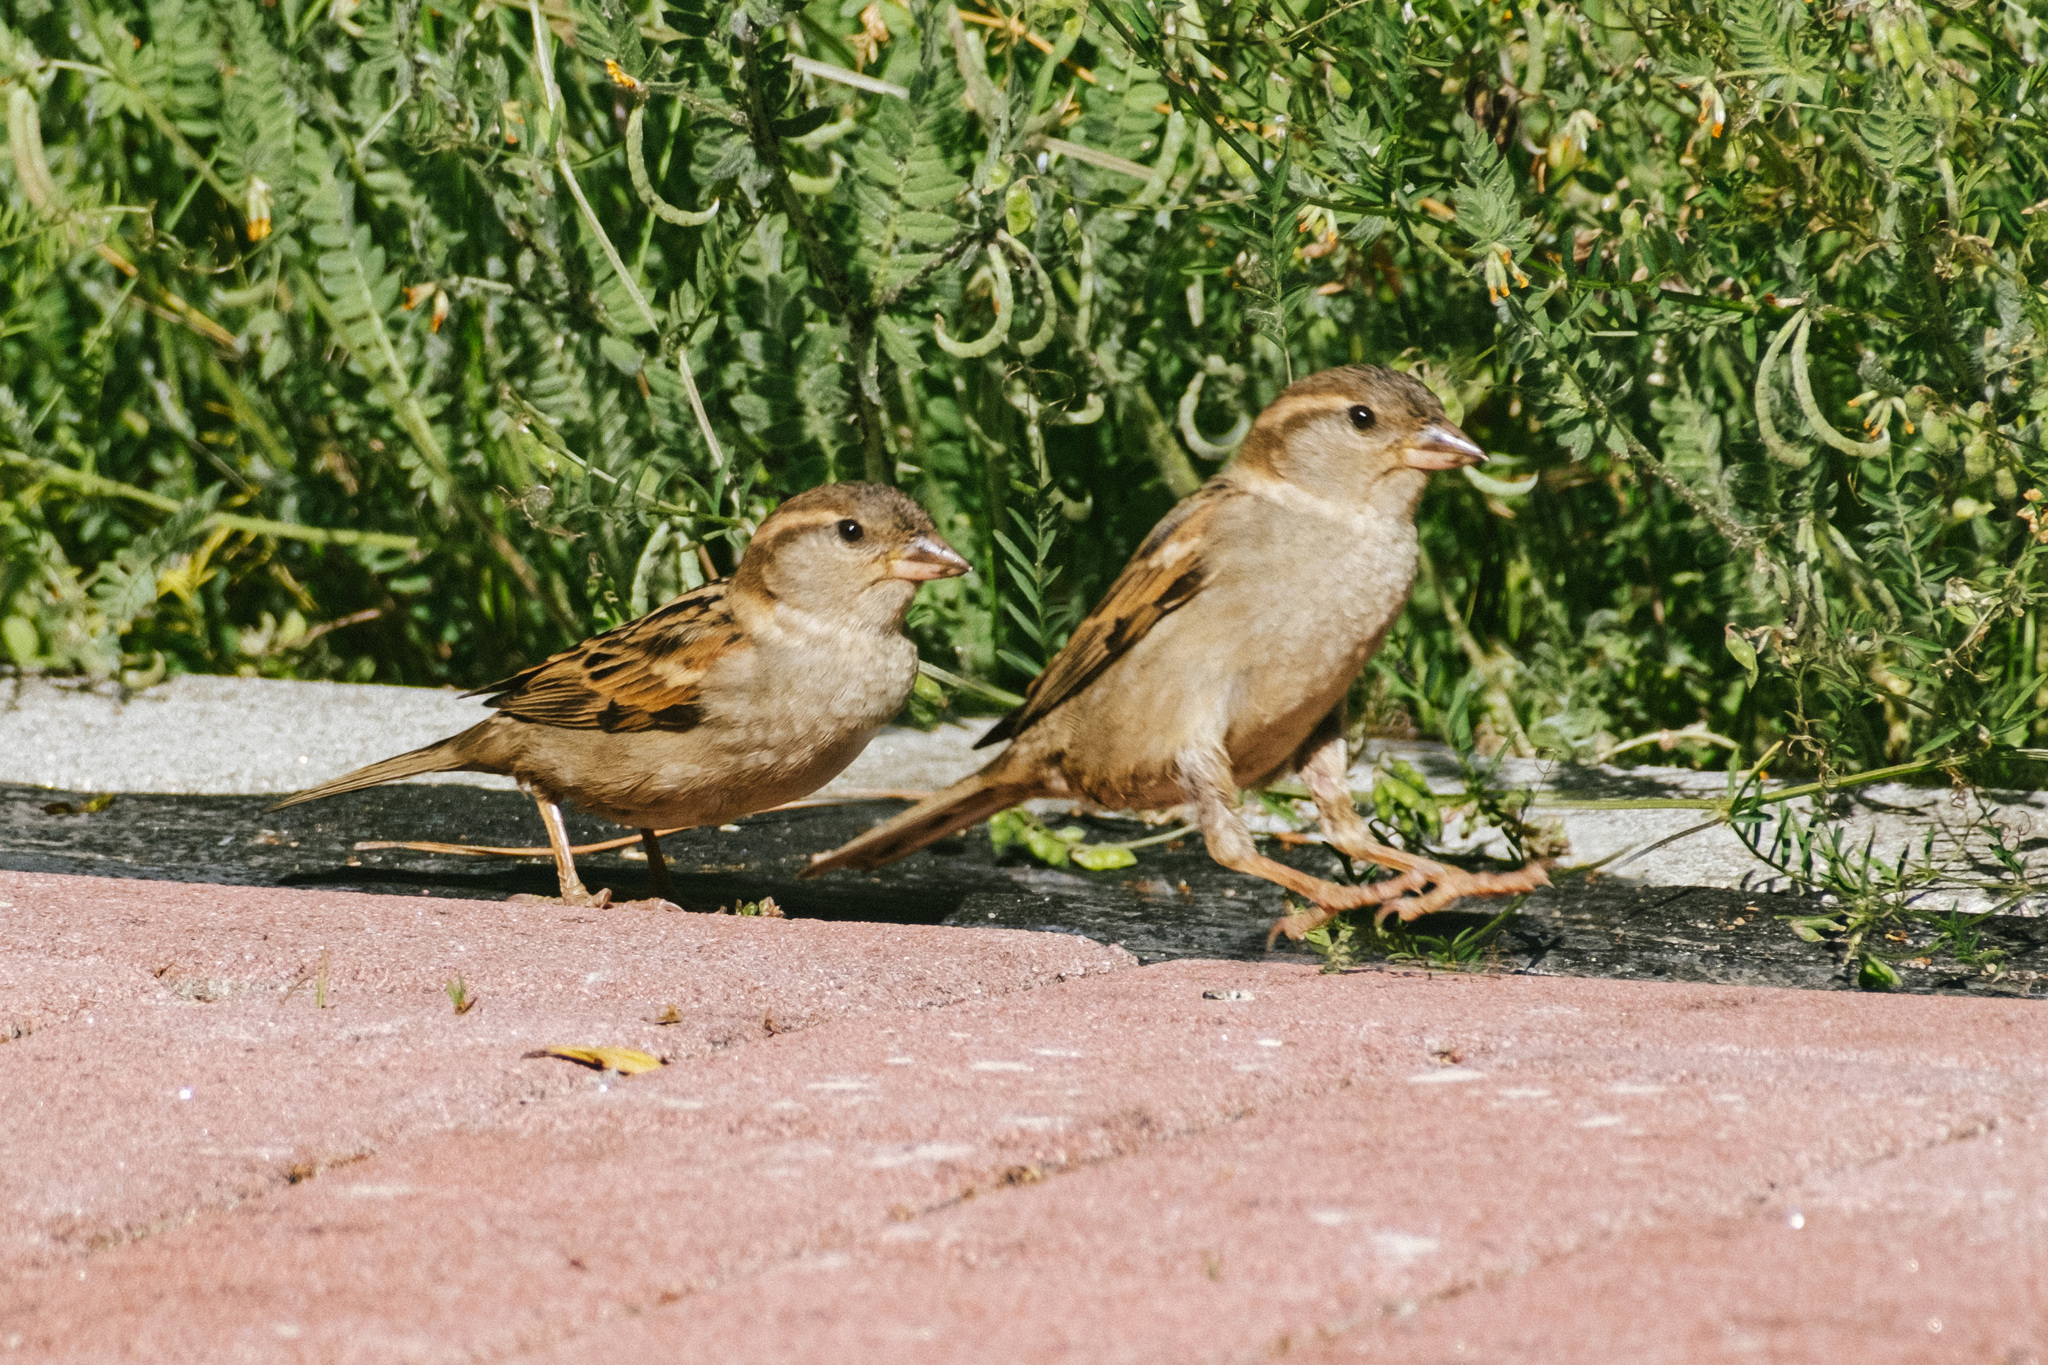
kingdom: Animalia
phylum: Chordata
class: Aves
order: Passeriformes
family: Passeridae
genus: Passer
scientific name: Passer domesticus
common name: House sparrow
